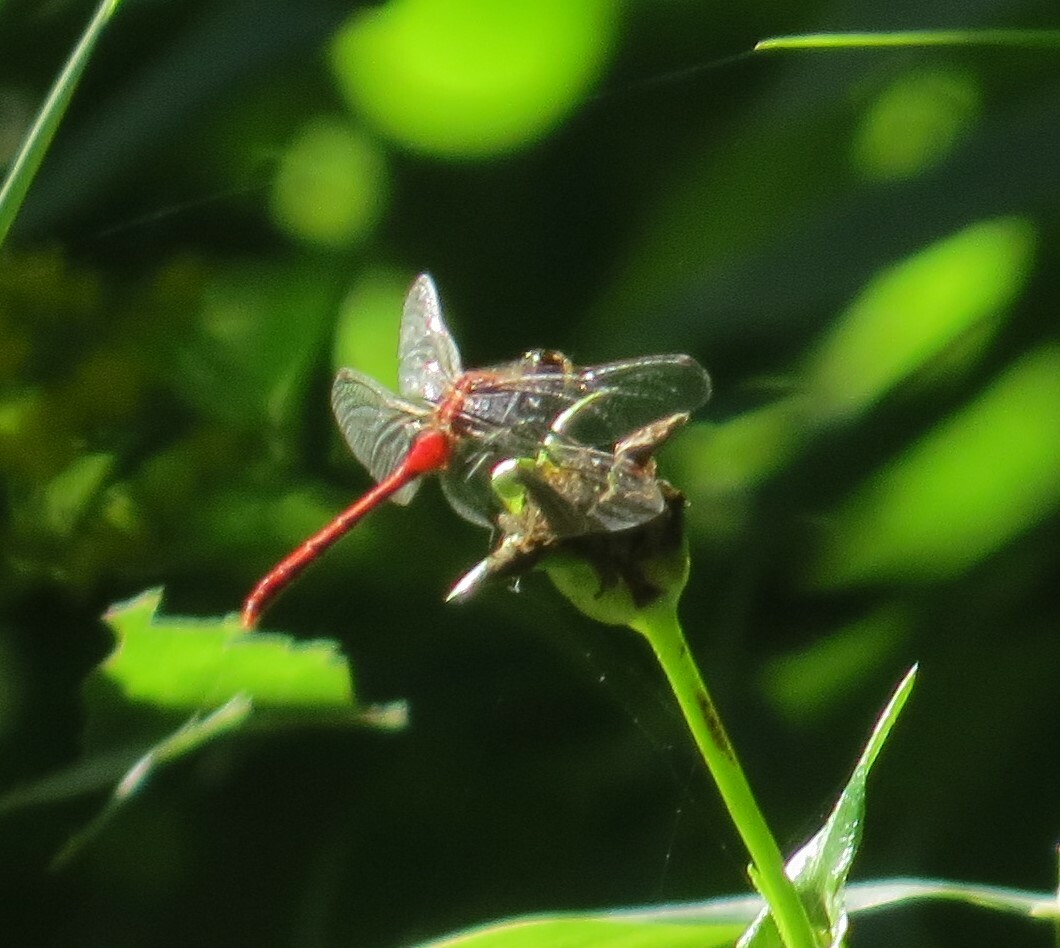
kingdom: Animalia
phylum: Arthropoda
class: Insecta
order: Odonata
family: Libellulidae
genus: Sympetrum
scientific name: Sympetrum obtrusum
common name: White-faced meadowhawk
